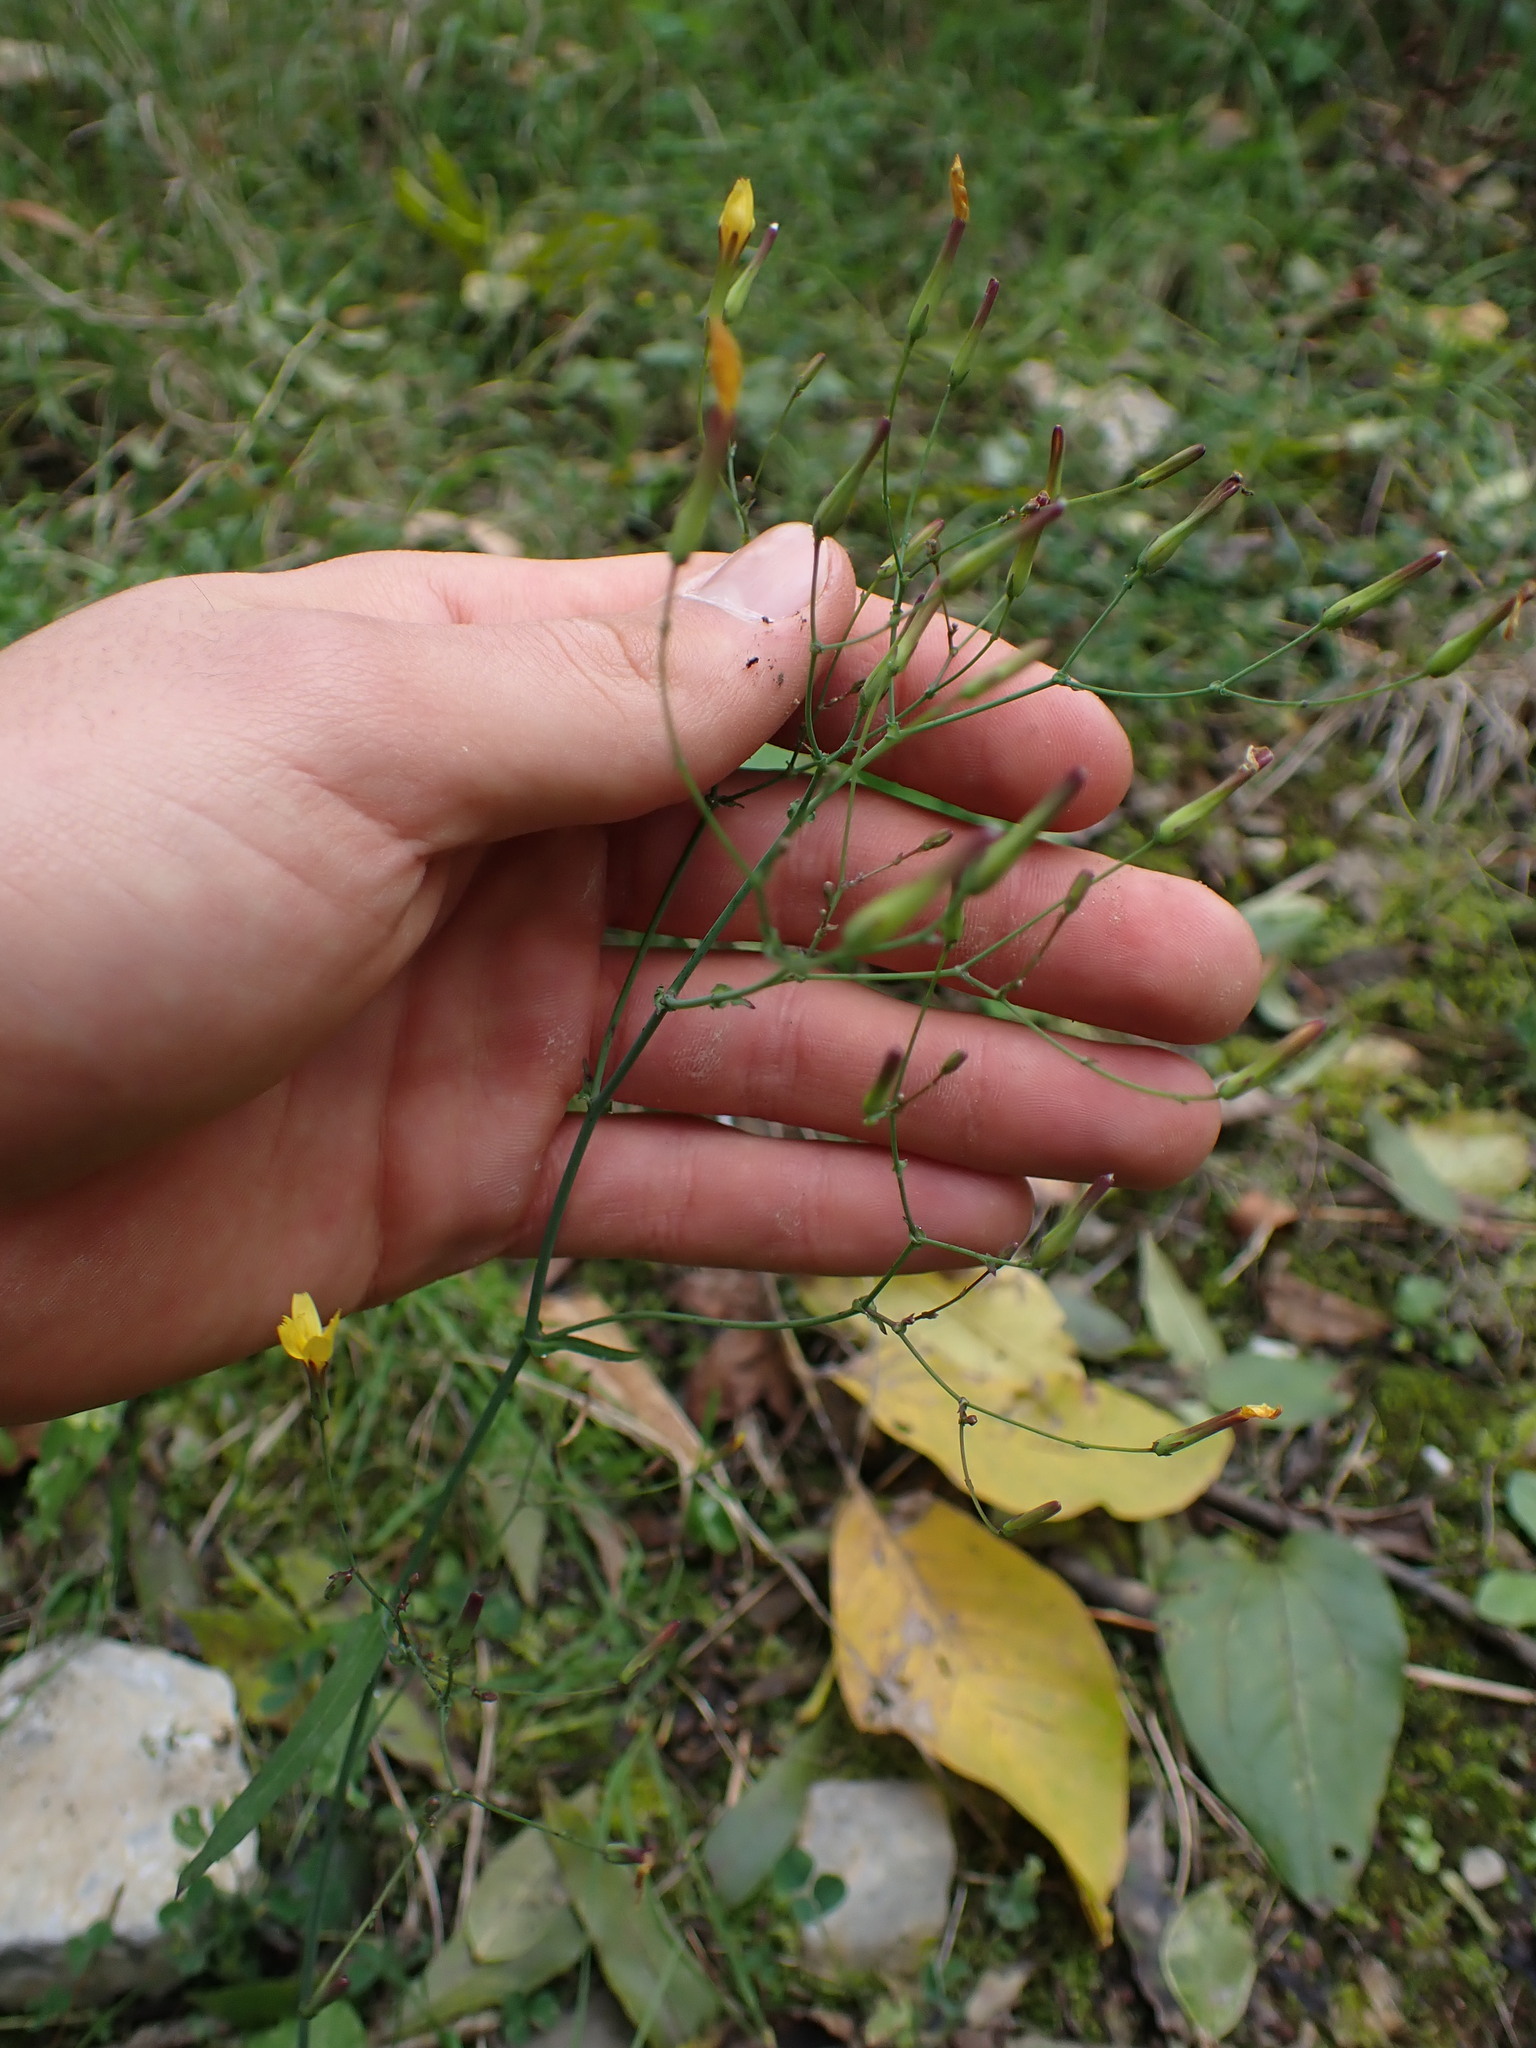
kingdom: Plantae
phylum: Tracheophyta
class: Magnoliopsida
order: Asterales
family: Asteraceae
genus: Mycelis
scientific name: Mycelis muralis
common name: Wall lettuce
